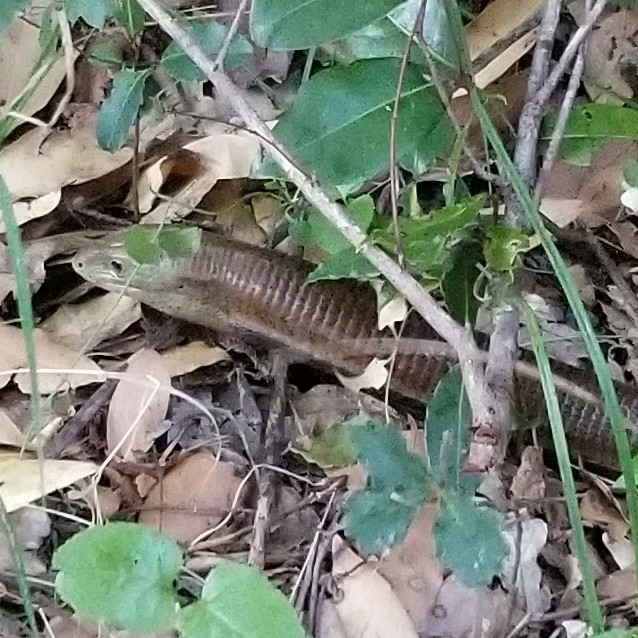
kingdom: Animalia
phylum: Chordata
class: Squamata
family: Anguidae
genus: Pseudopus
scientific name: Pseudopus apodus
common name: European glass lizard
